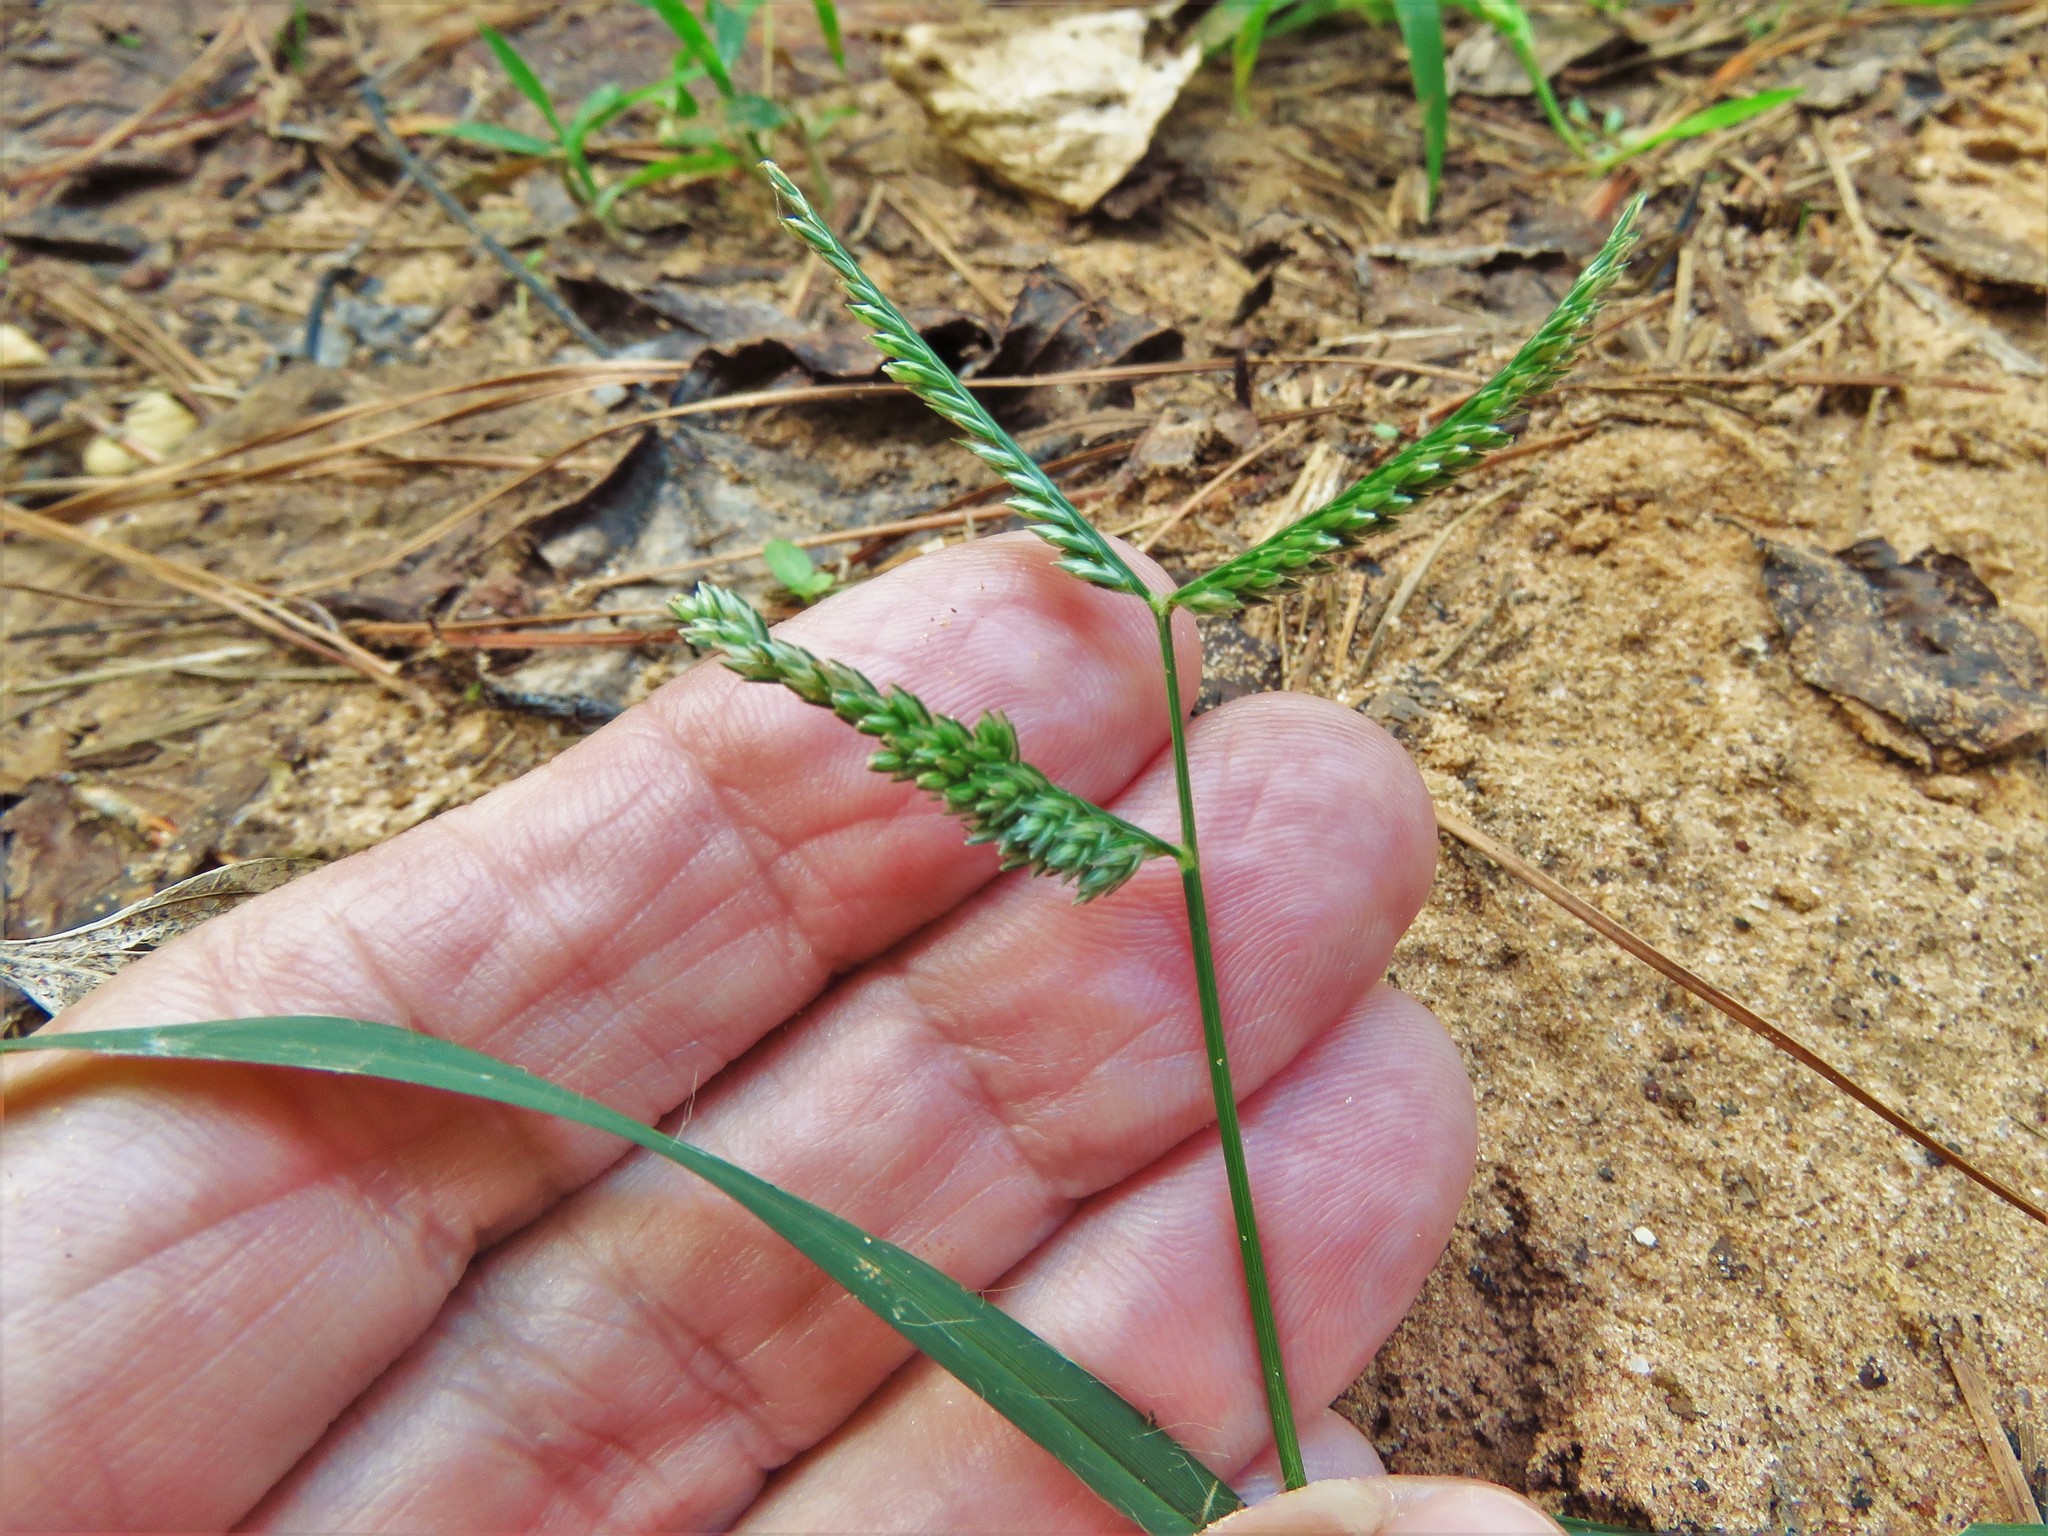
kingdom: Plantae
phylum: Tracheophyta
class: Liliopsida
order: Poales
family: Poaceae
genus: Eleusine
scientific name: Eleusine indica
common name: Yard-grass
